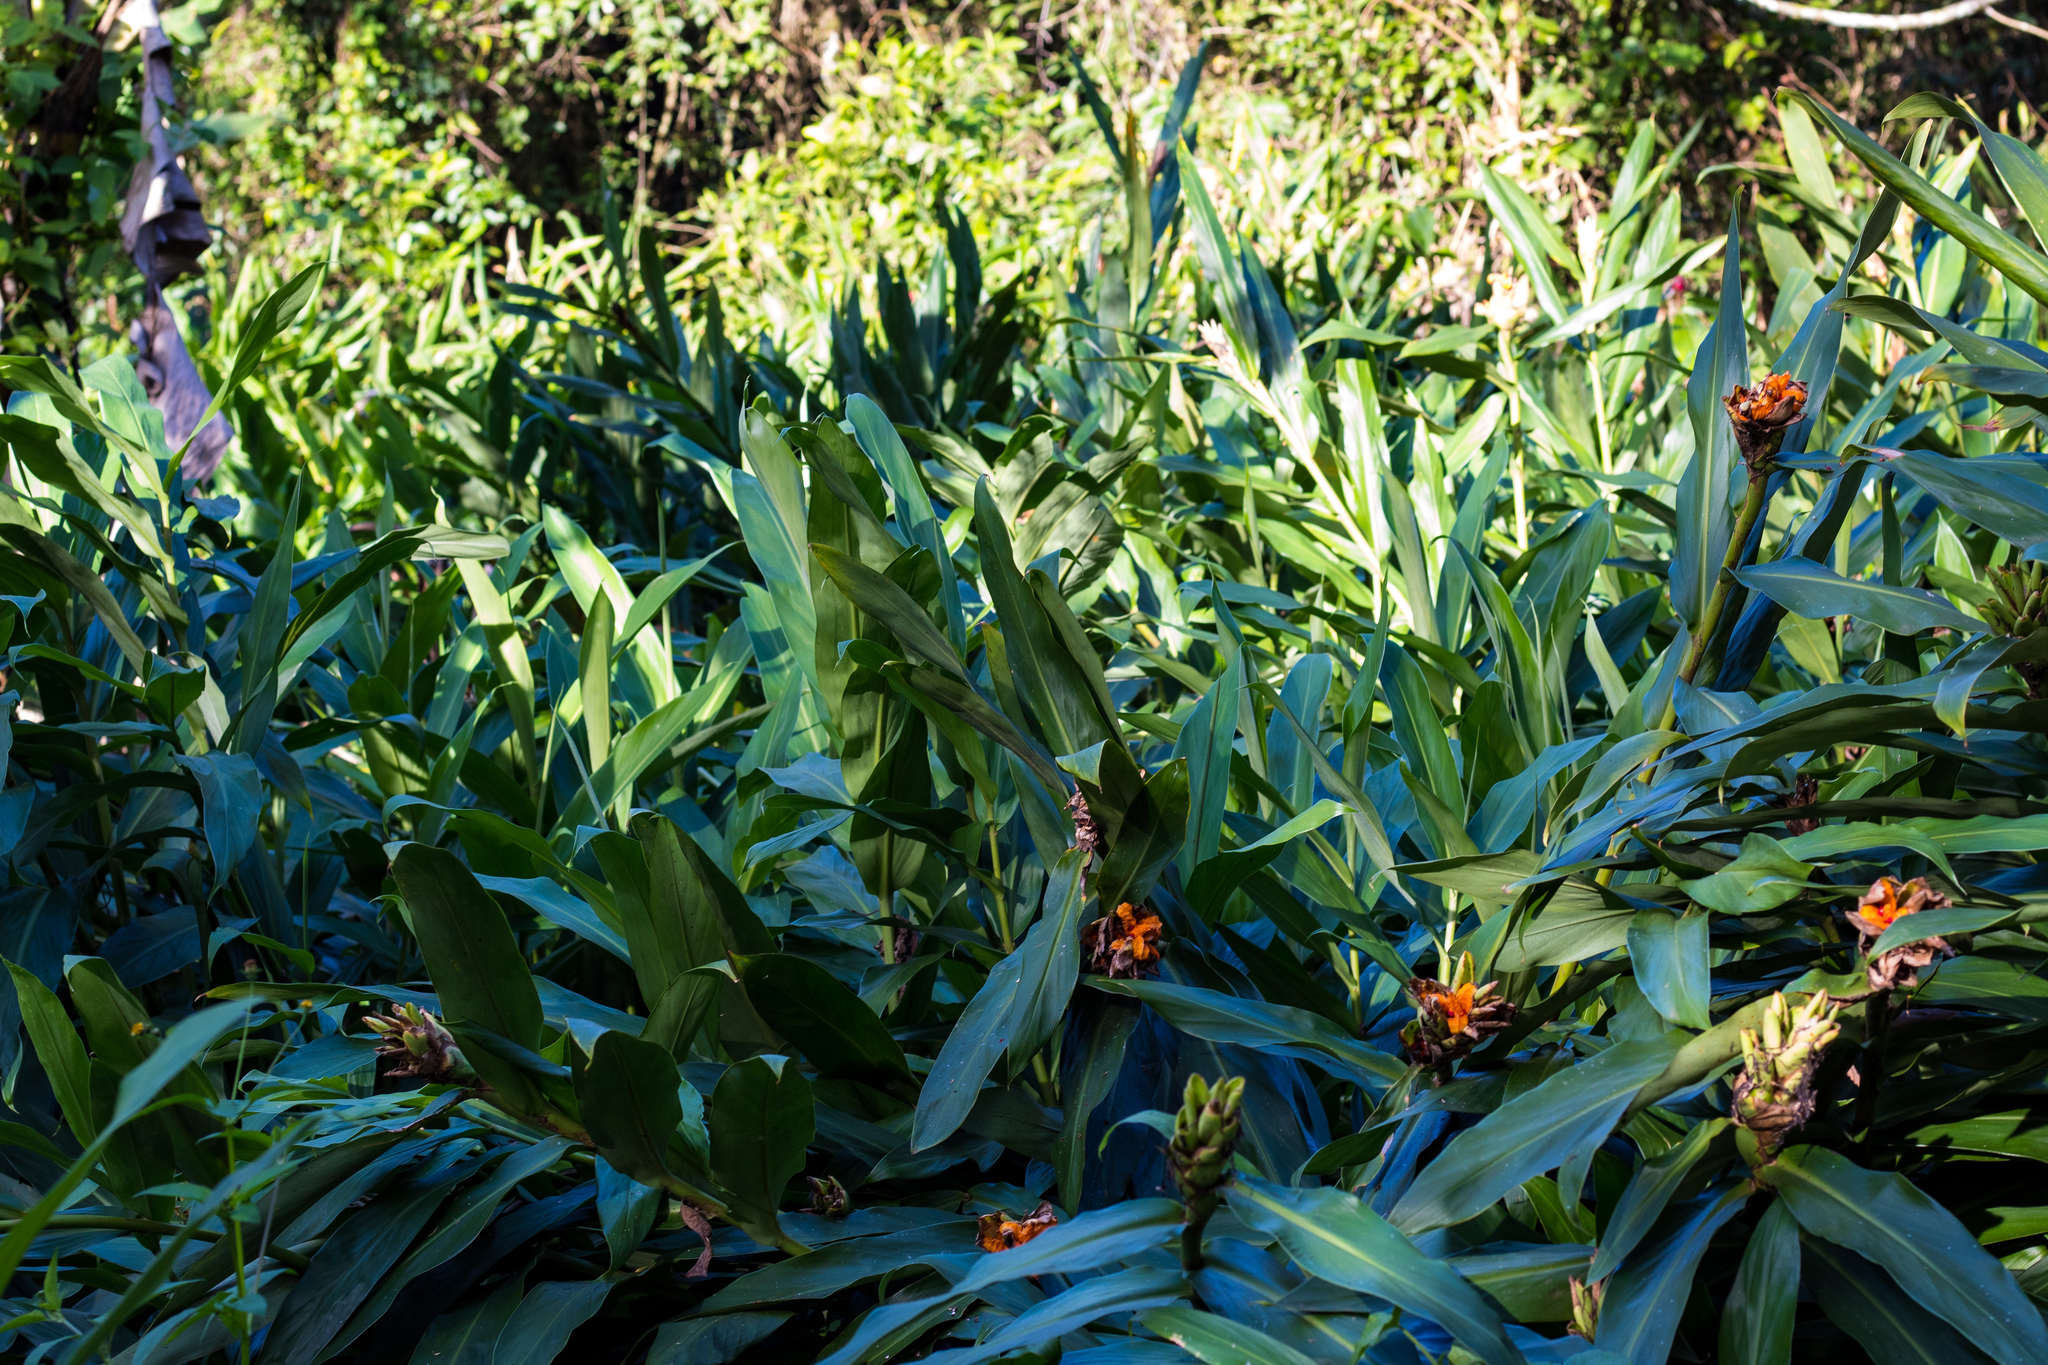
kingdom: Plantae
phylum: Tracheophyta
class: Liliopsida
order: Zingiberales
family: Zingiberaceae
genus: Hedychium
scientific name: Hedychium coronarium
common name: White garland-lily
